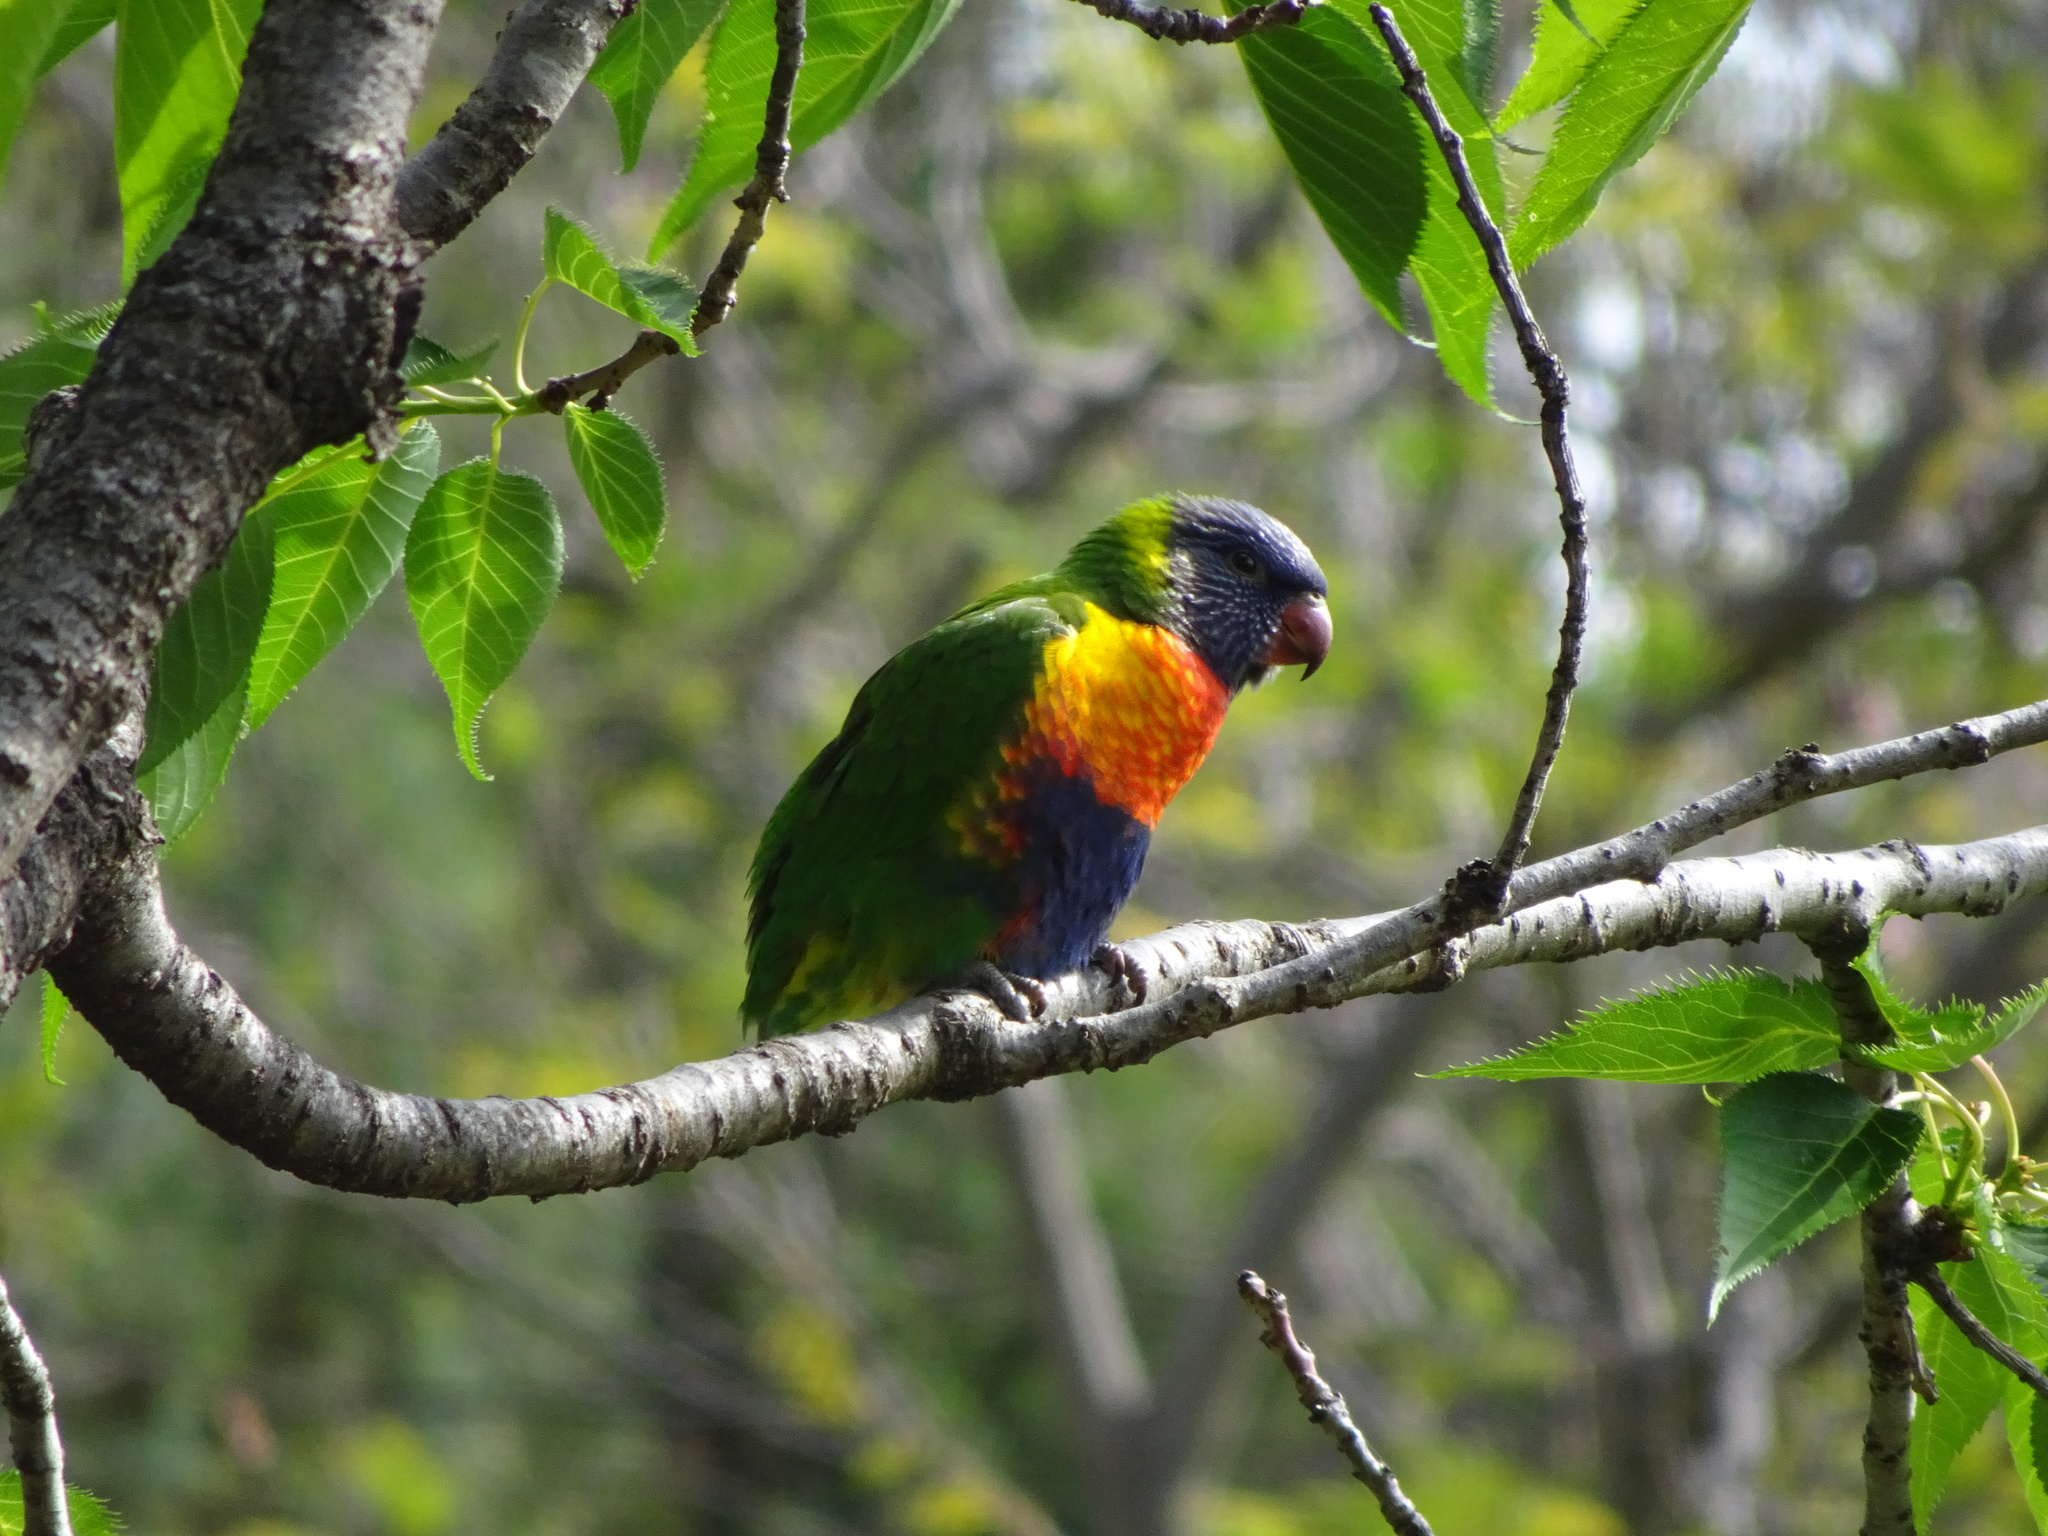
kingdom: Animalia
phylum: Chordata
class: Aves
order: Psittaciformes
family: Psittacidae
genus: Trichoglossus
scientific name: Trichoglossus haematodus
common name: Coconut lorikeet
